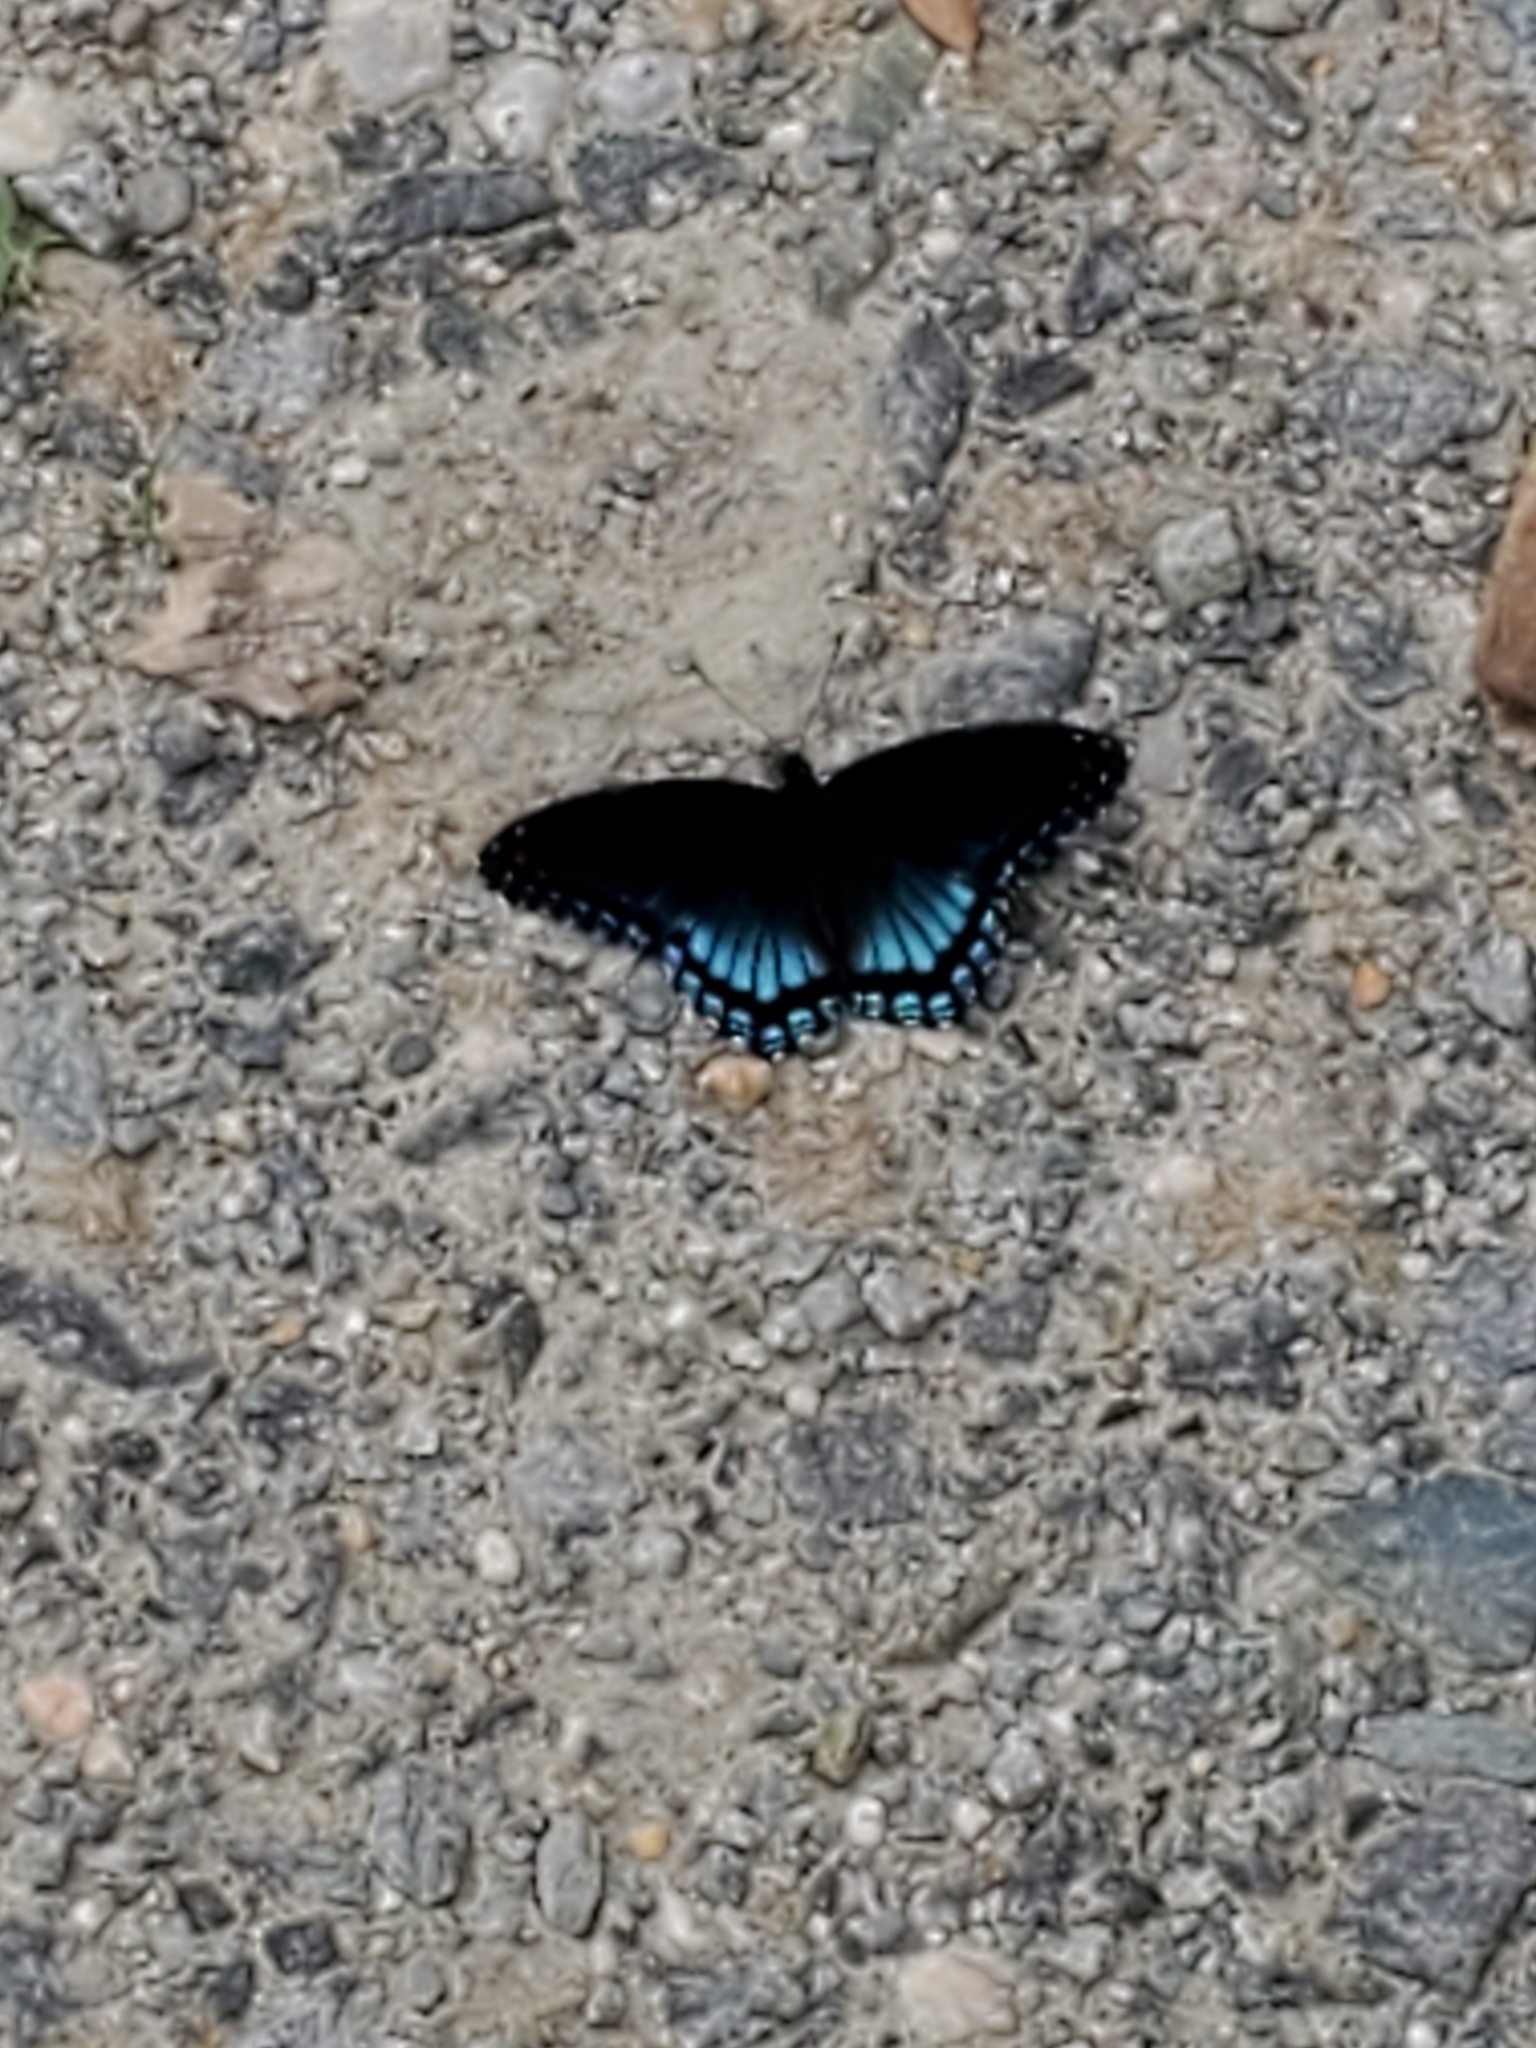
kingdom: Animalia
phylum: Arthropoda
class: Insecta
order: Lepidoptera
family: Nymphalidae
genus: Limenitis
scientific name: Limenitis astyanax
